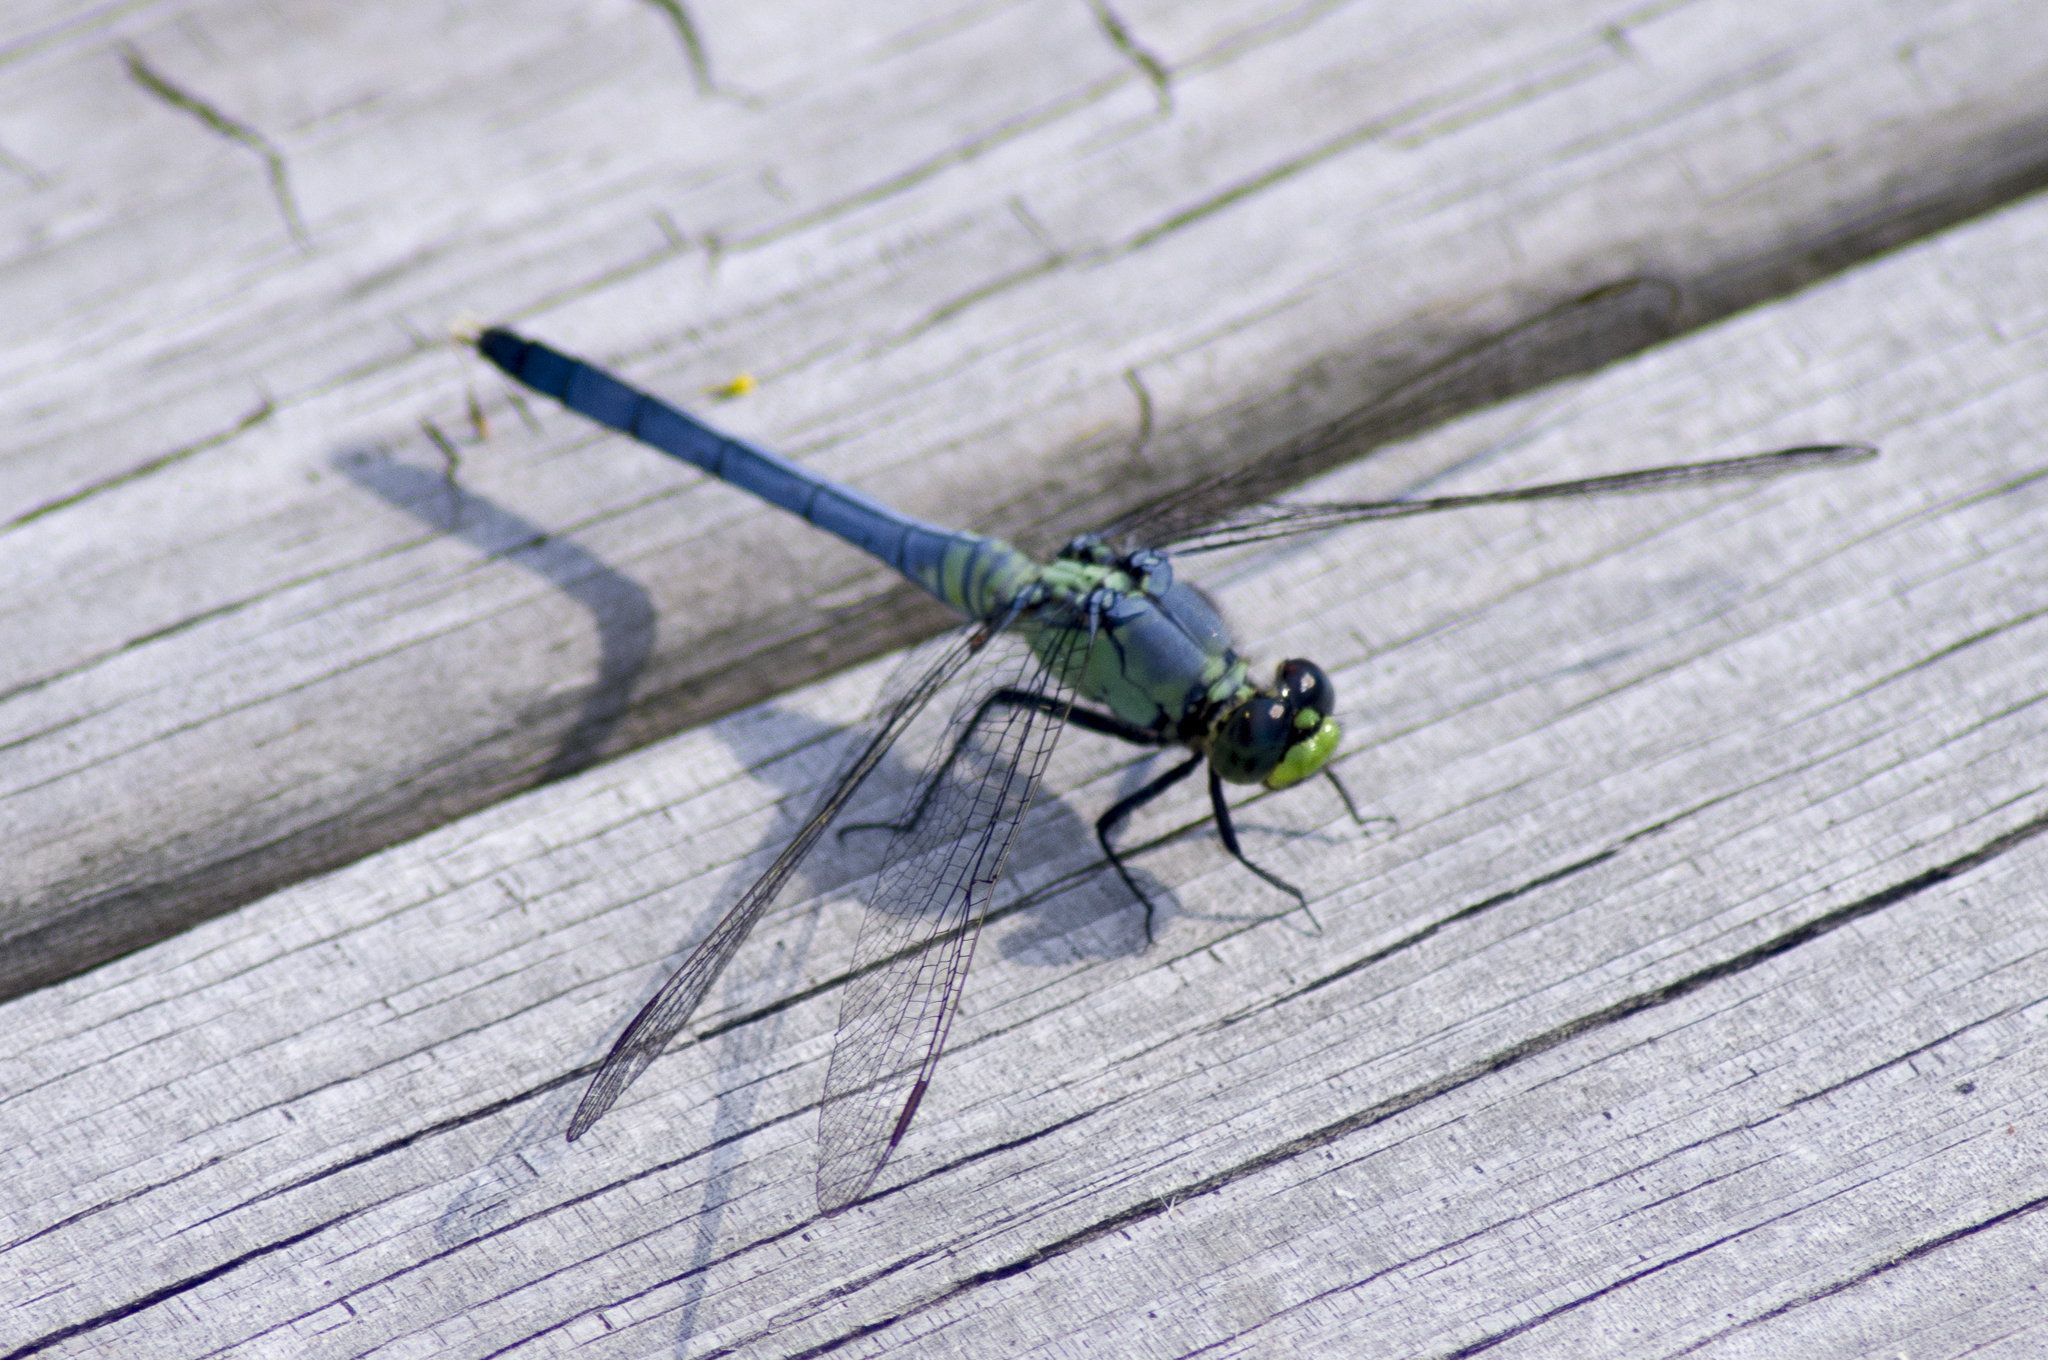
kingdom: Animalia
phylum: Arthropoda
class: Insecta
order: Odonata
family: Libellulidae
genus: Erythemis
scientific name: Erythemis simplicicollis
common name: Eastern pondhawk
